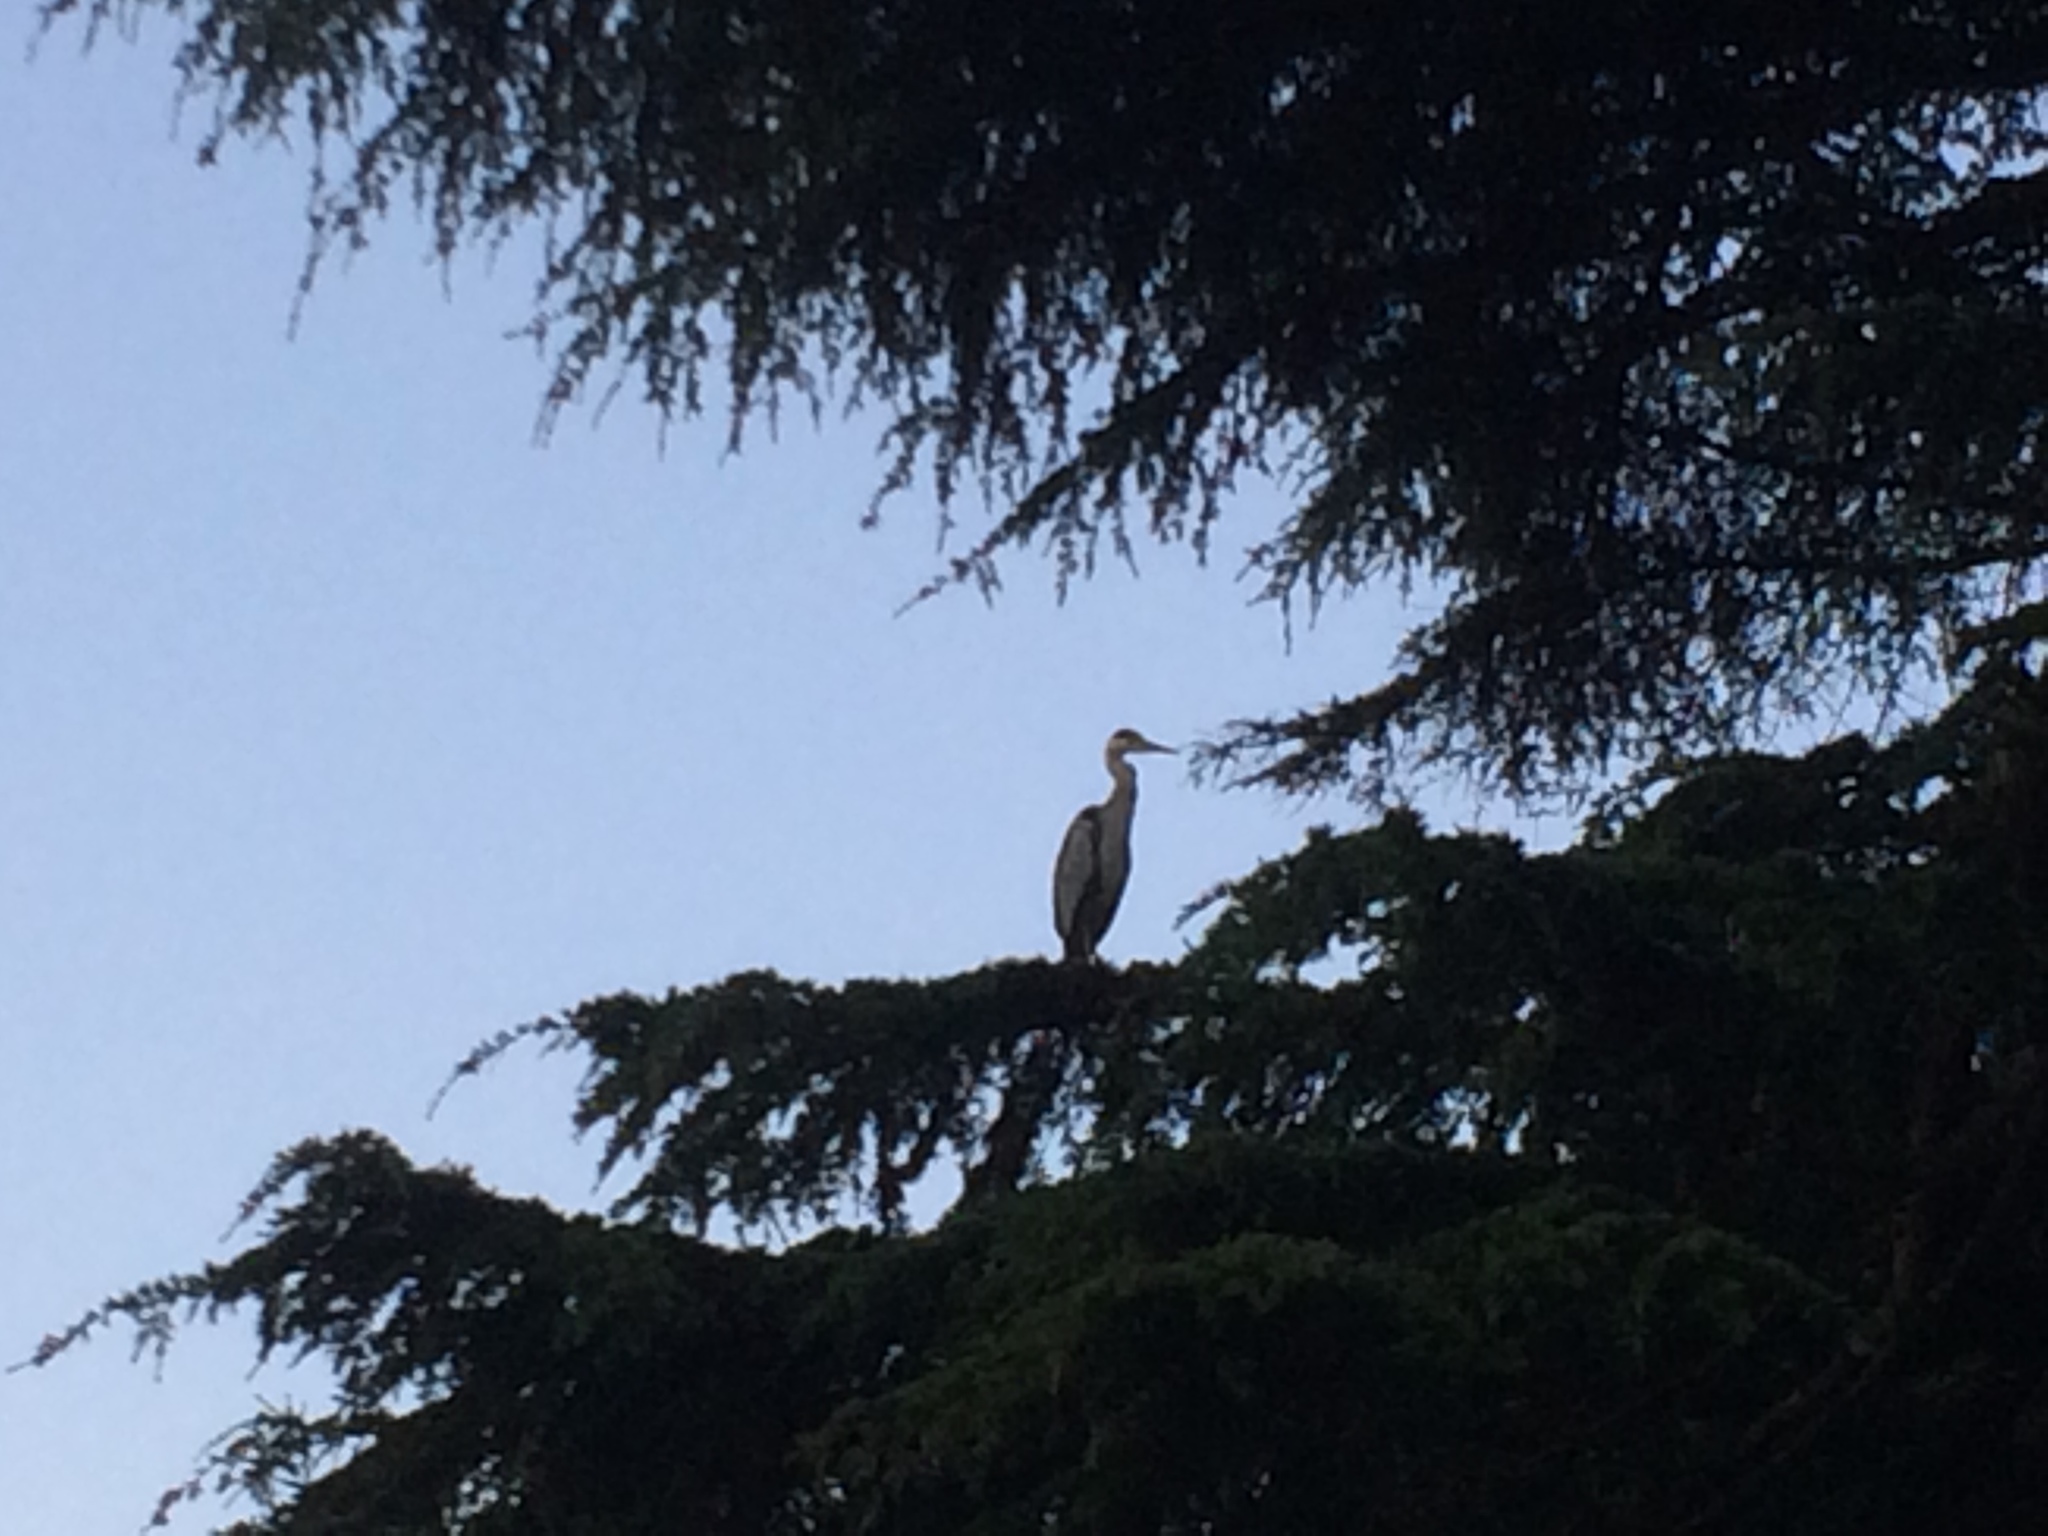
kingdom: Animalia
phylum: Chordata
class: Aves
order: Pelecaniformes
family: Ardeidae
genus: Ardea
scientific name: Ardea cinerea
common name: Grey heron
